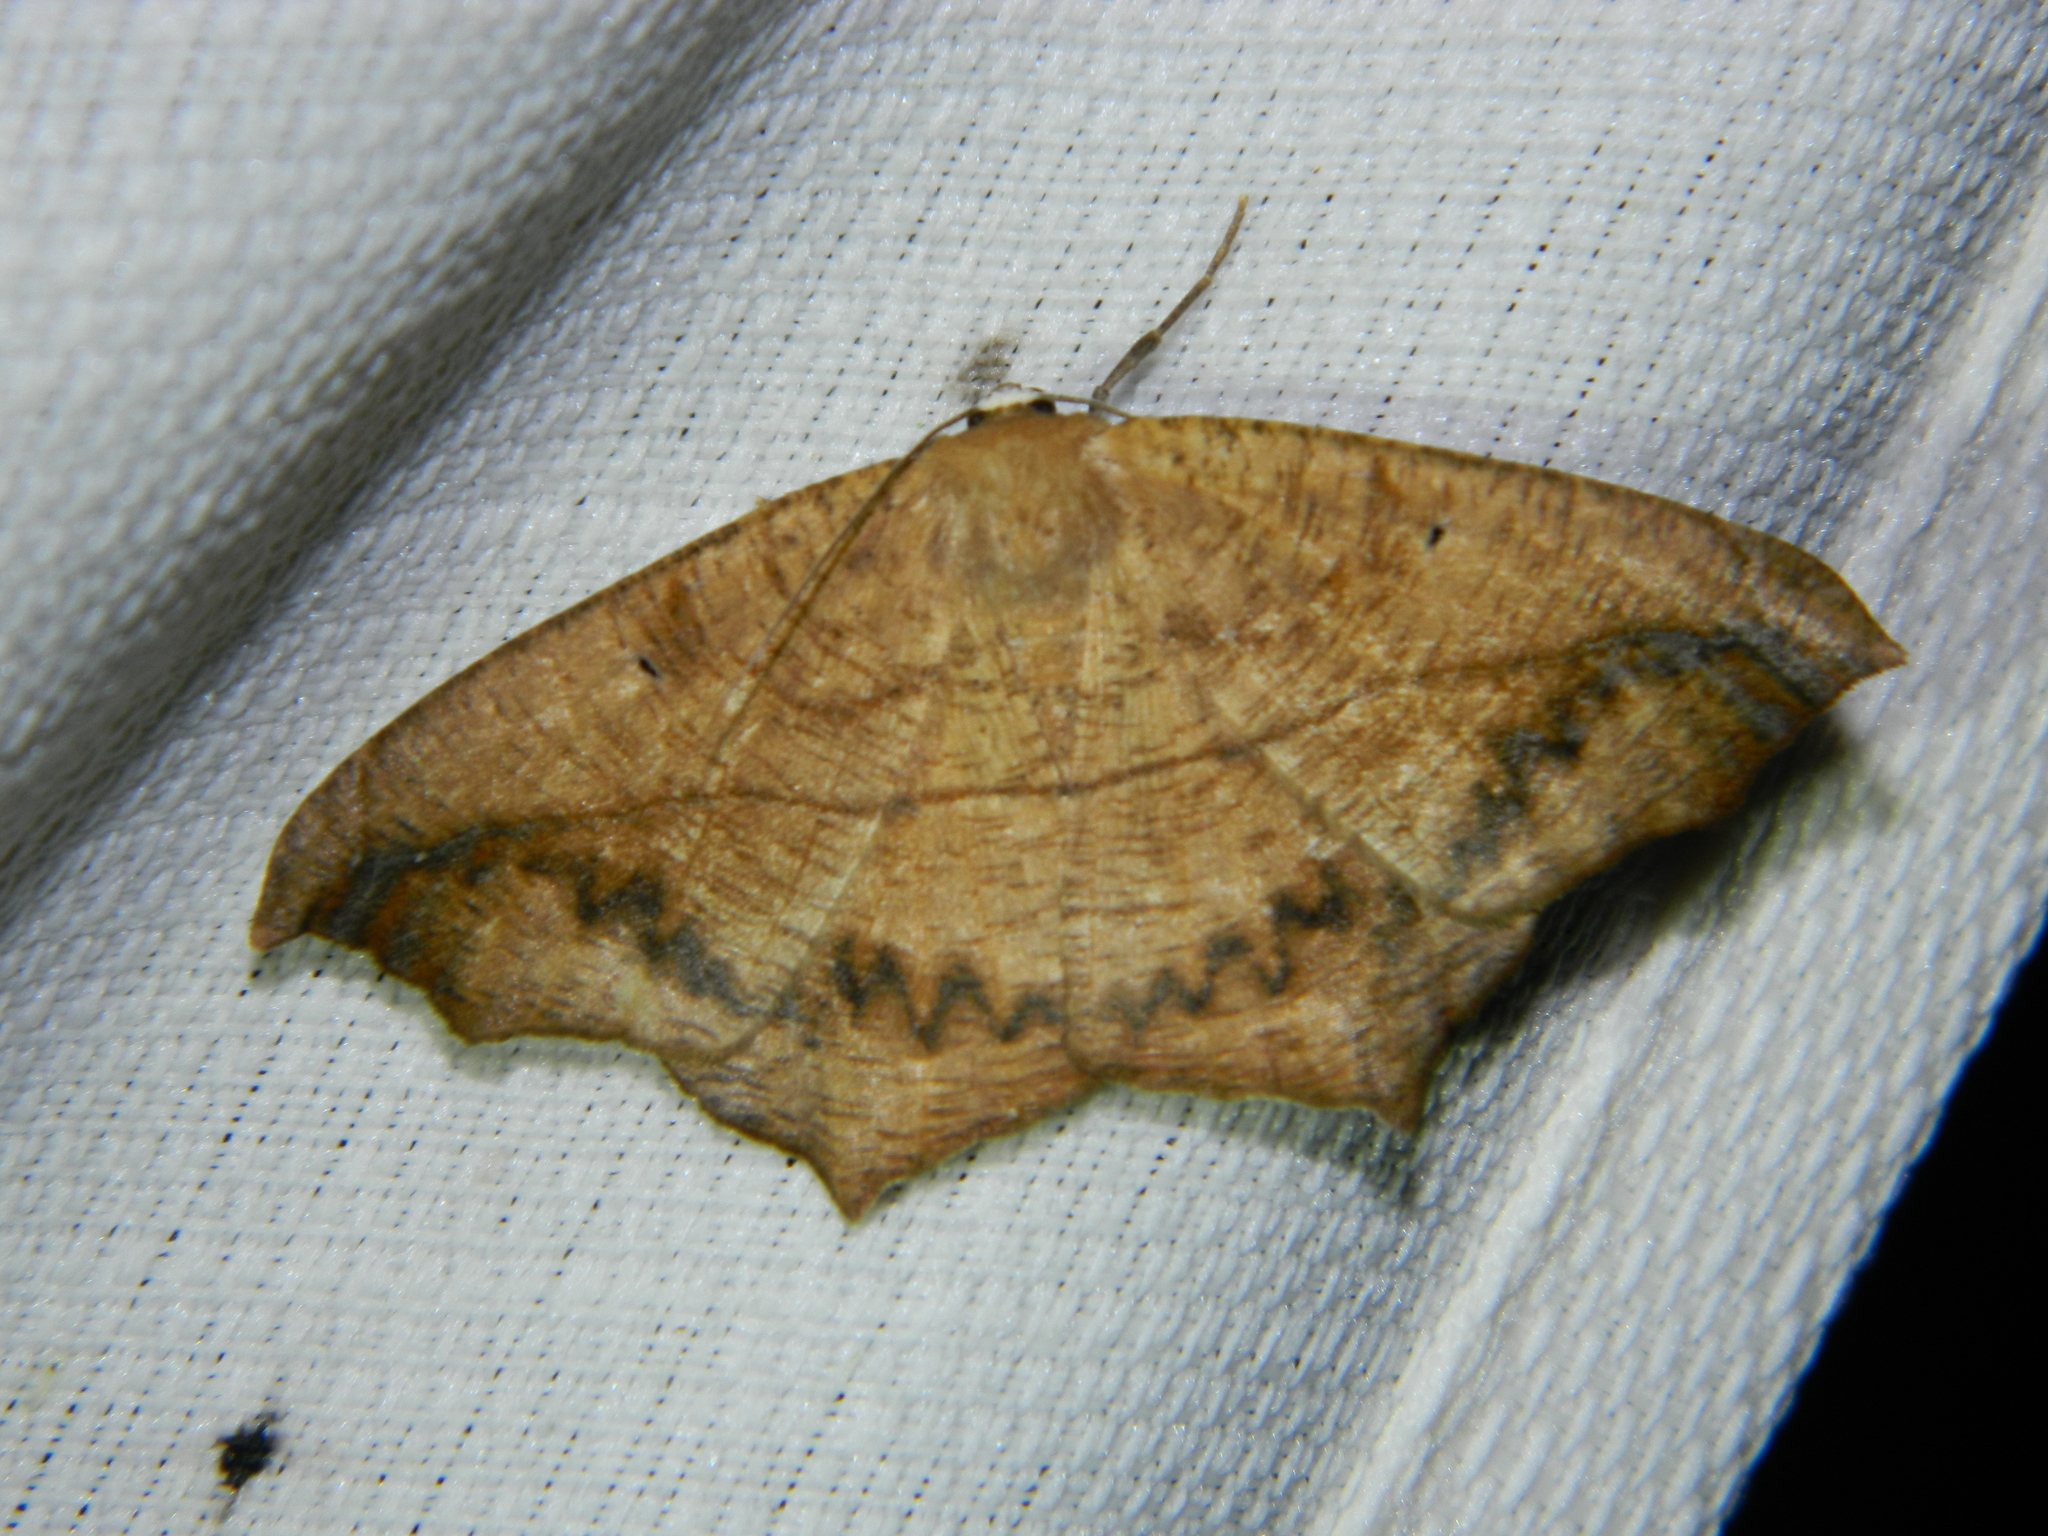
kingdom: Animalia
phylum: Arthropoda
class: Insecta
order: Lepidoptera
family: Geometridae
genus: Prochoerodes
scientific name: Prochoerodes lineola
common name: Large maple spanworm
